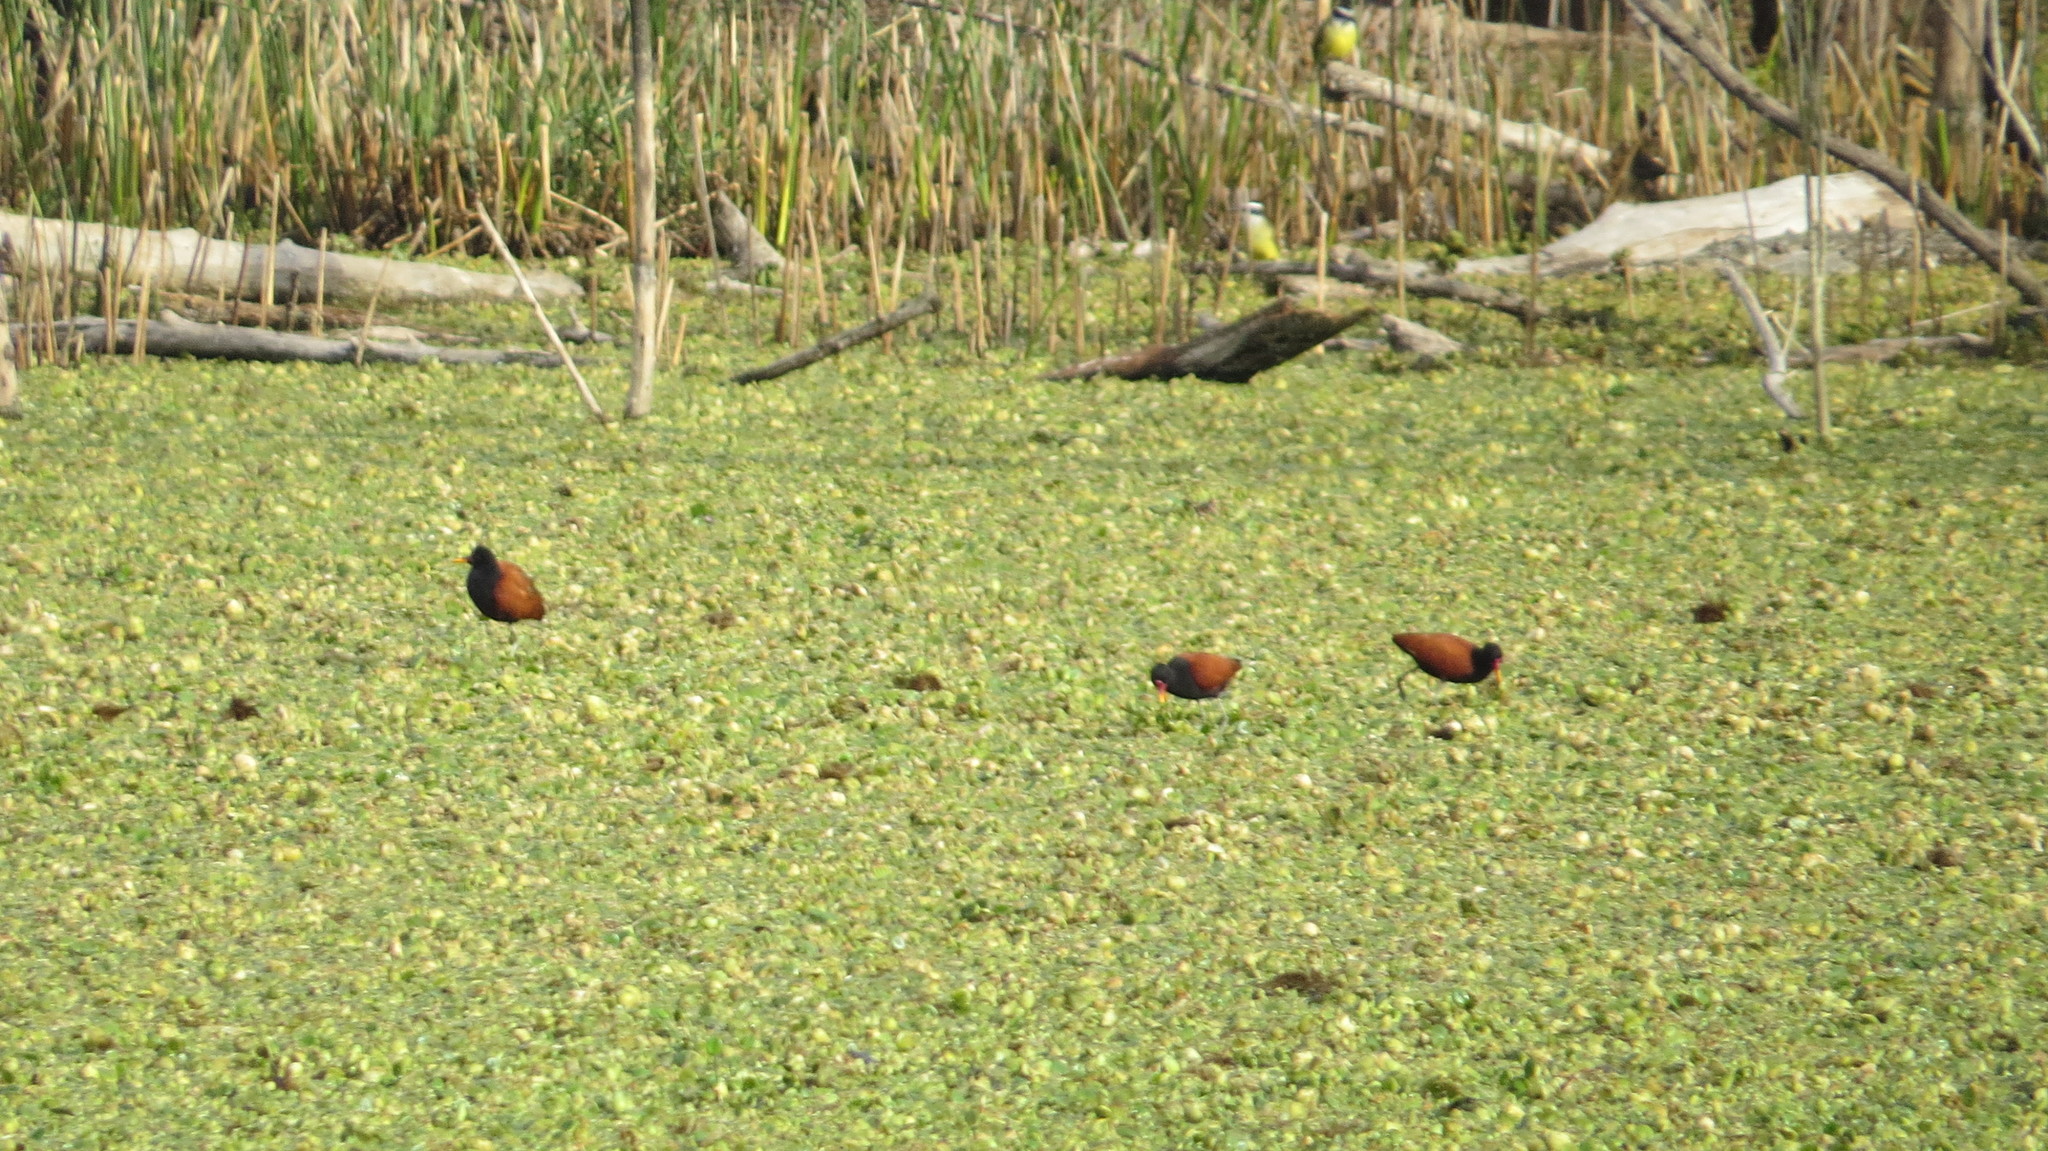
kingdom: Animalia
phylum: Chordata
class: Aves
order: Charadriiformes
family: Jacanidae
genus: Jacana
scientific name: Jacana jacana
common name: Wattled jacana
